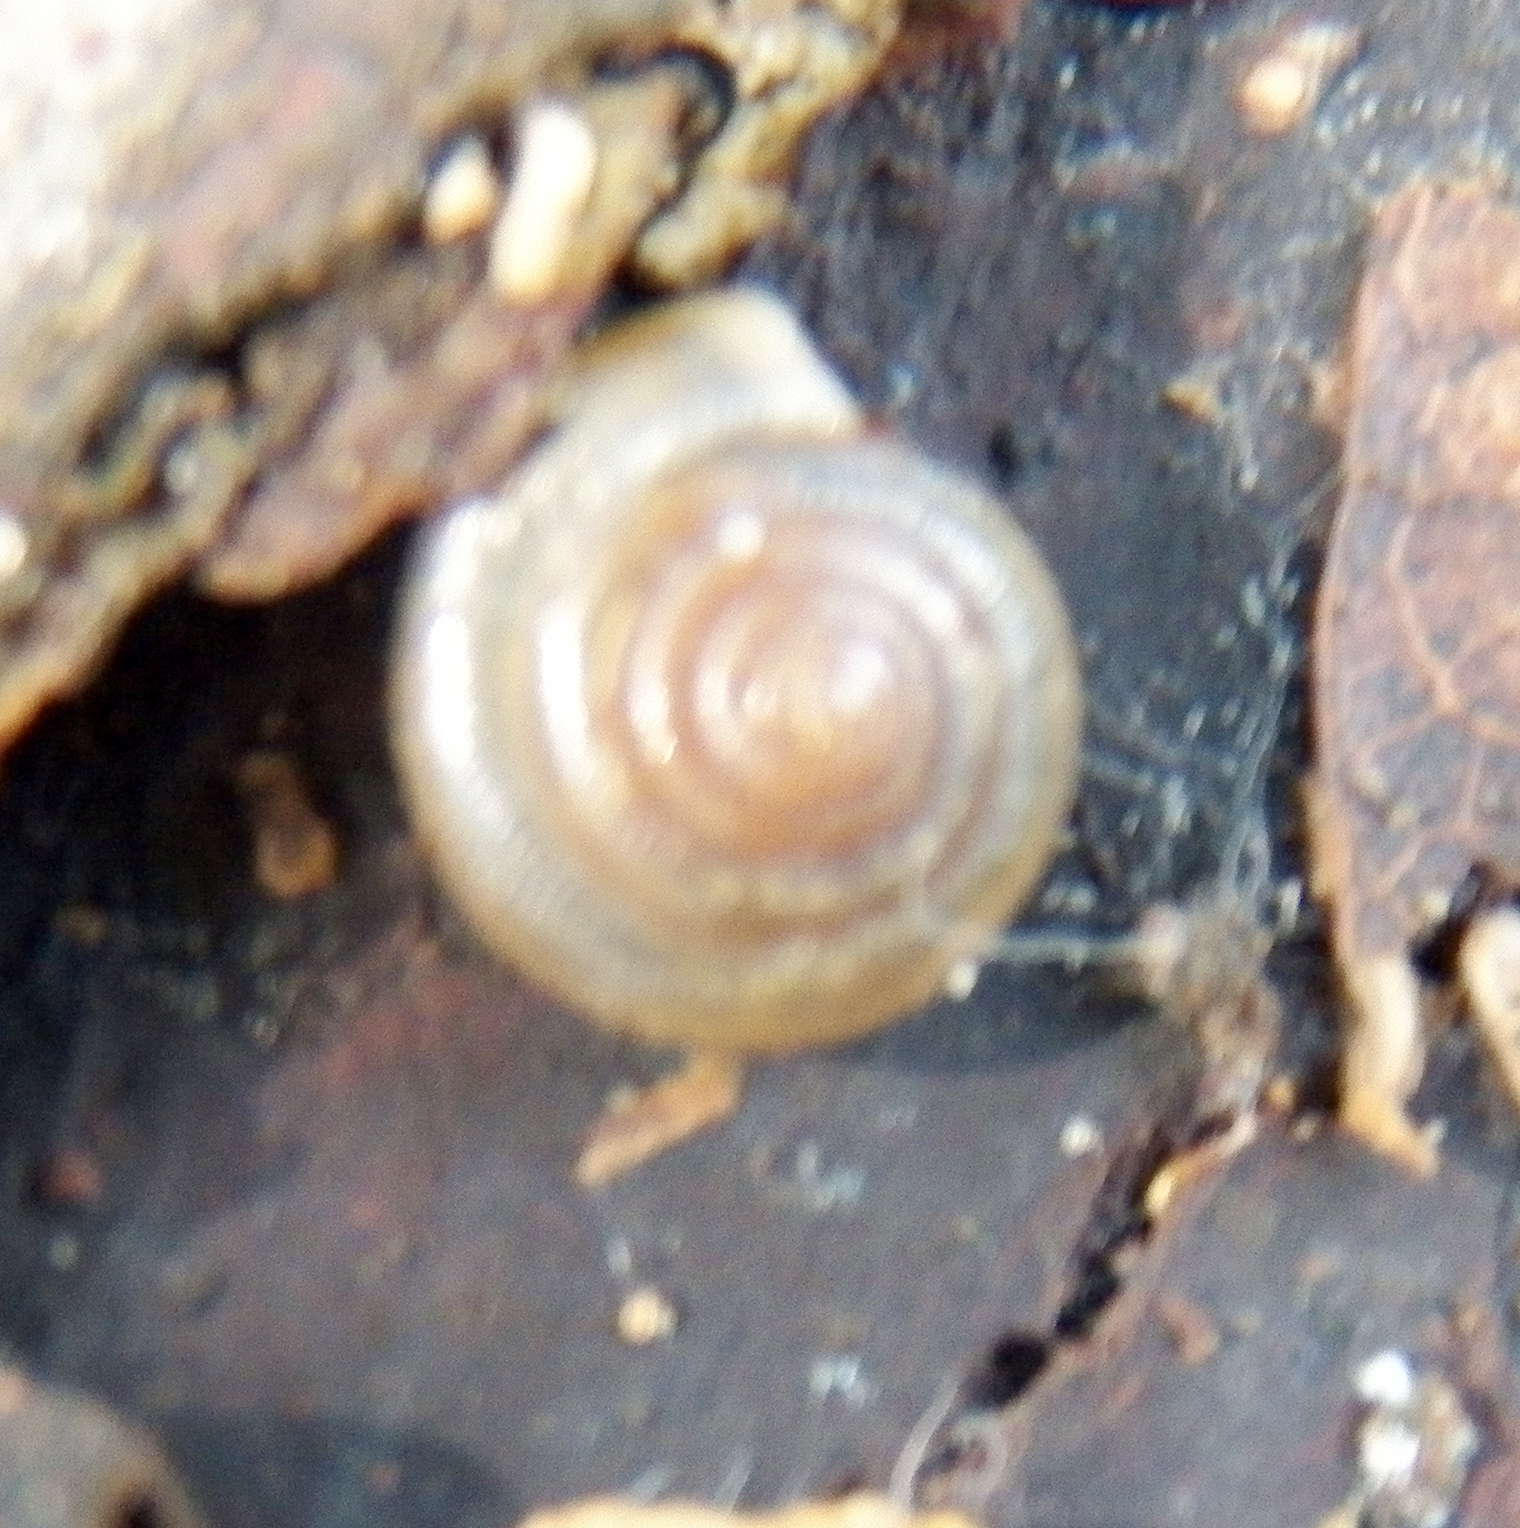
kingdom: Animalia
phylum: Mollusca
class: Gastropoda
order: Stylommatophora
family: Polygyridae
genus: Polygyra
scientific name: Polygyra cereolus
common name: Southern flatcone snail
